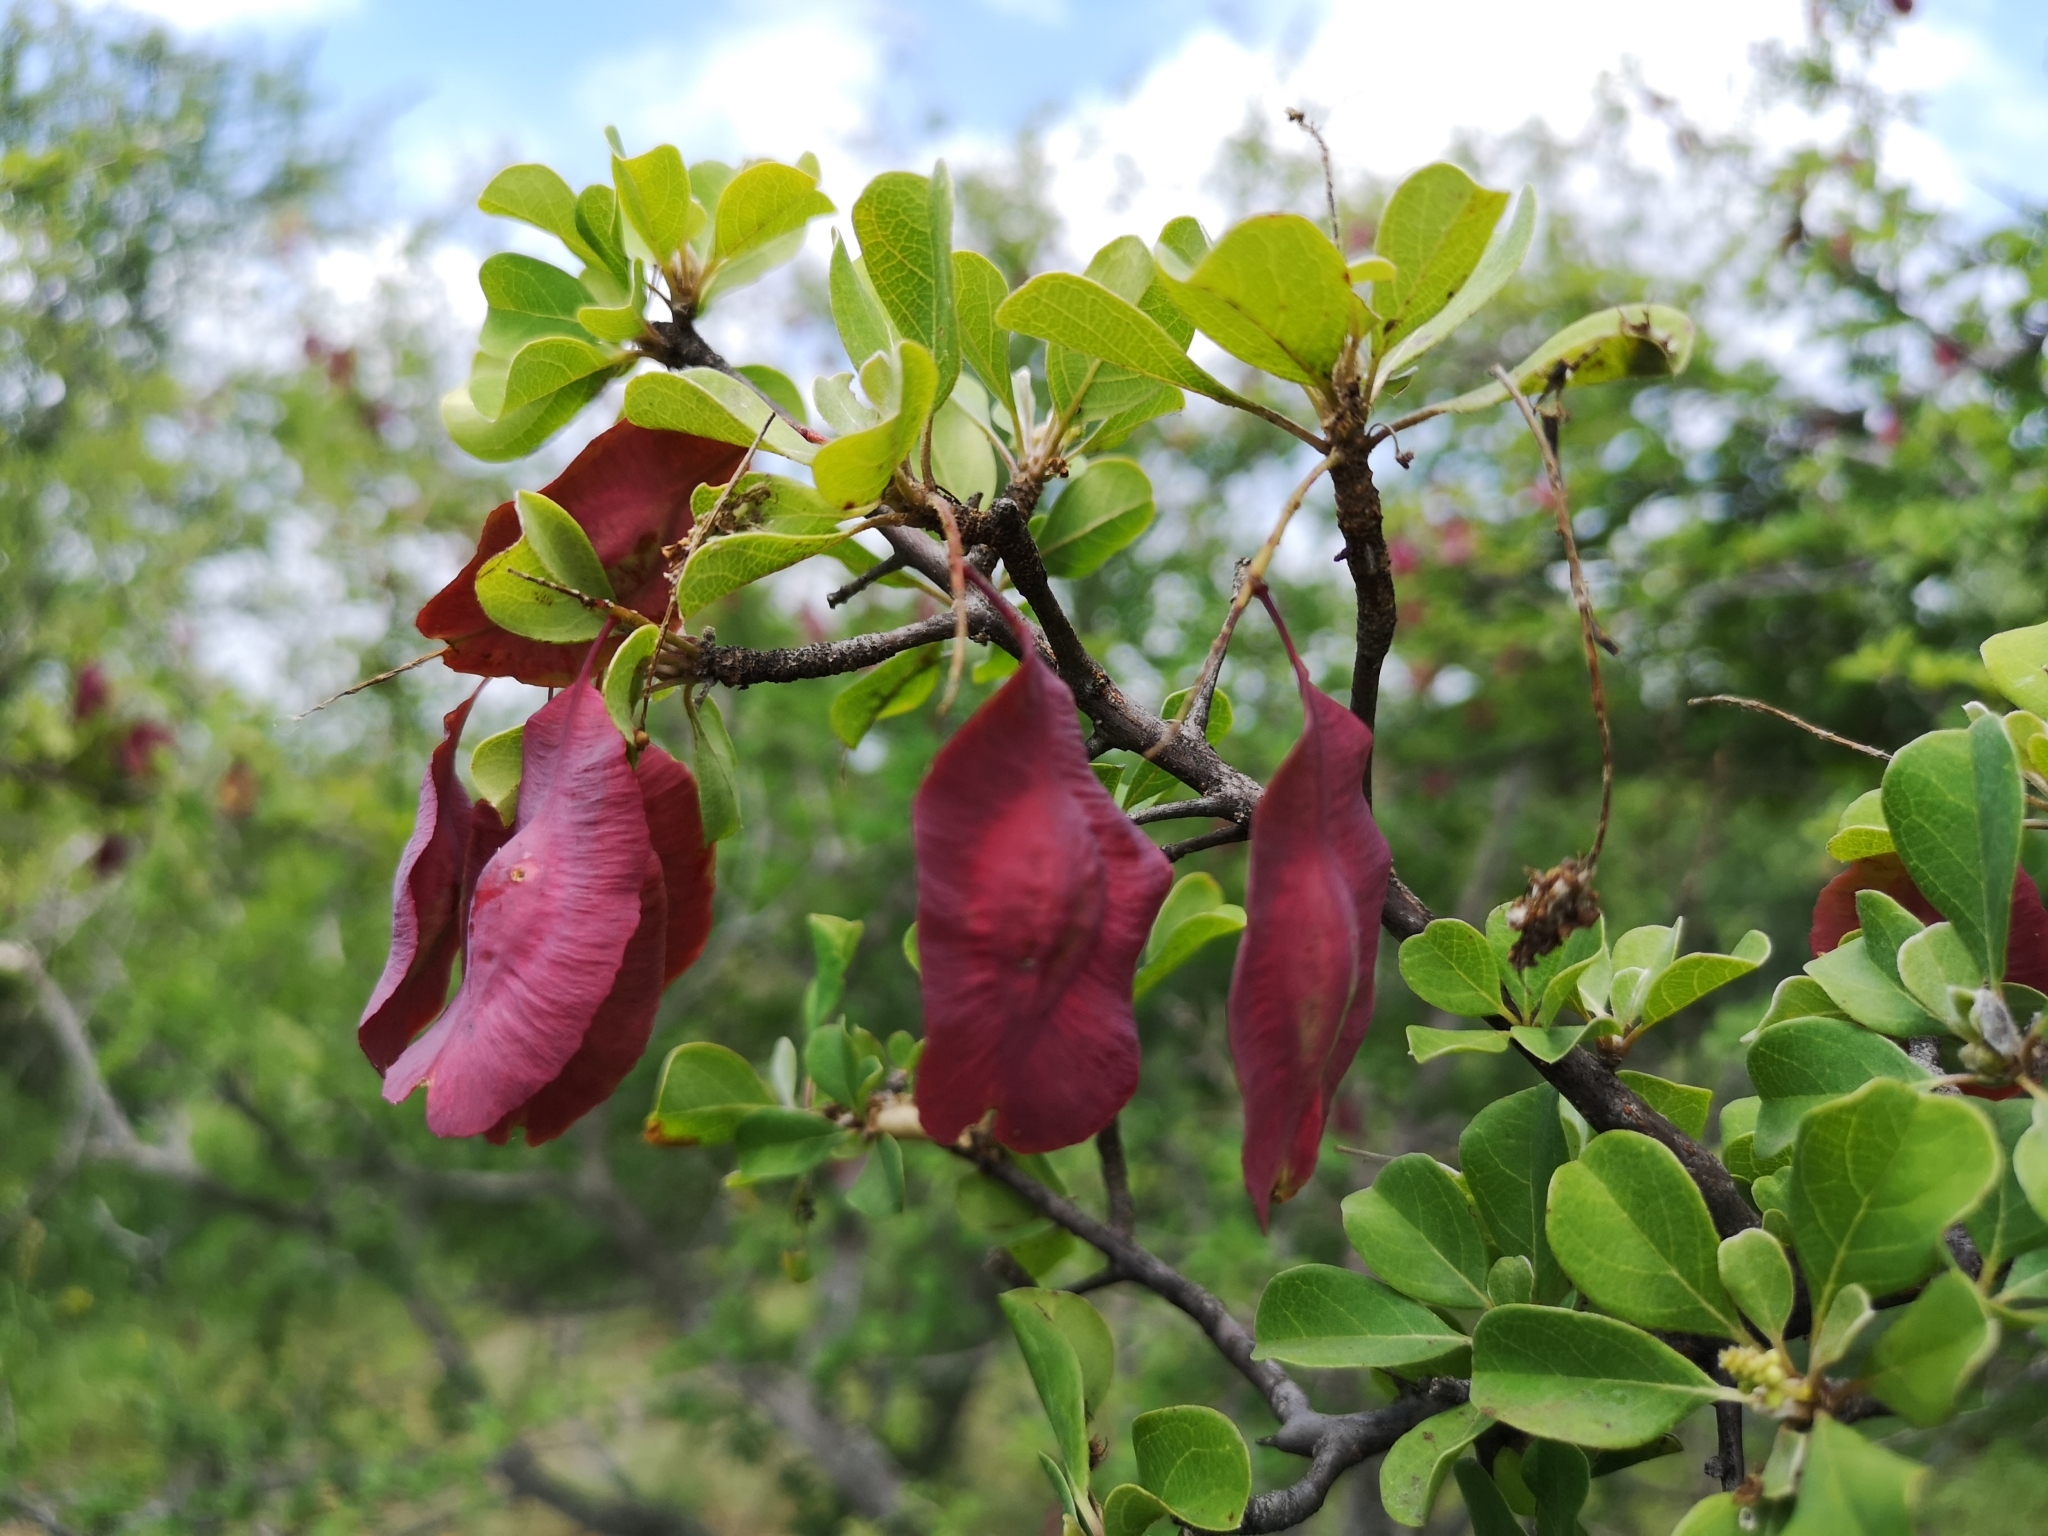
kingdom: Plantae
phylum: Tracheophyta
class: Magnoliopsida
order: Myrtales
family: Combretaceae
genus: Terminalia
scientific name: Terminalia prunioides
